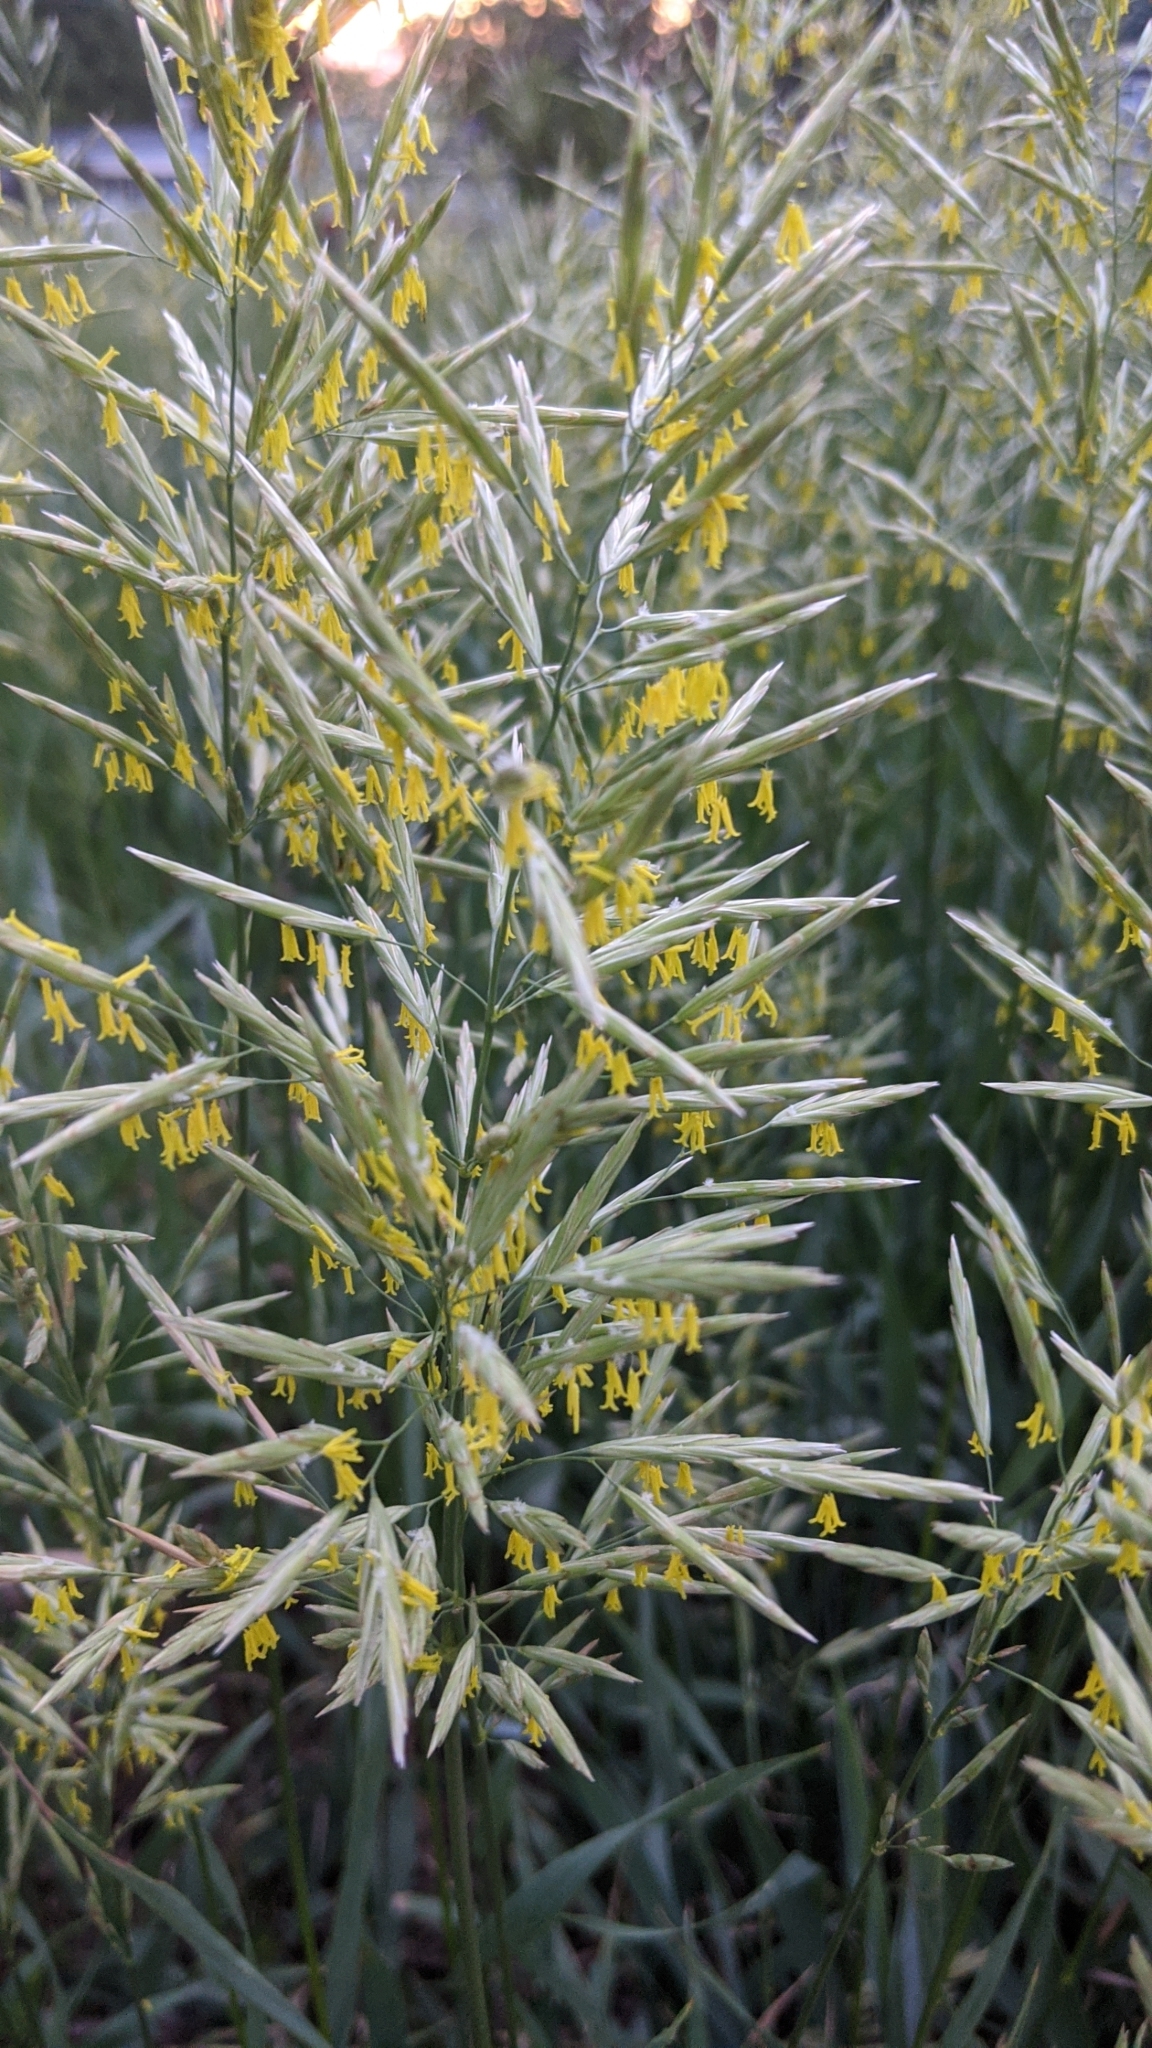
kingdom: Plantae
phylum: Tracheophyta
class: Liliopsida
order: Poales
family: Poaceae
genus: Bromus
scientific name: Bromus inermis
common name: Smooth brome
